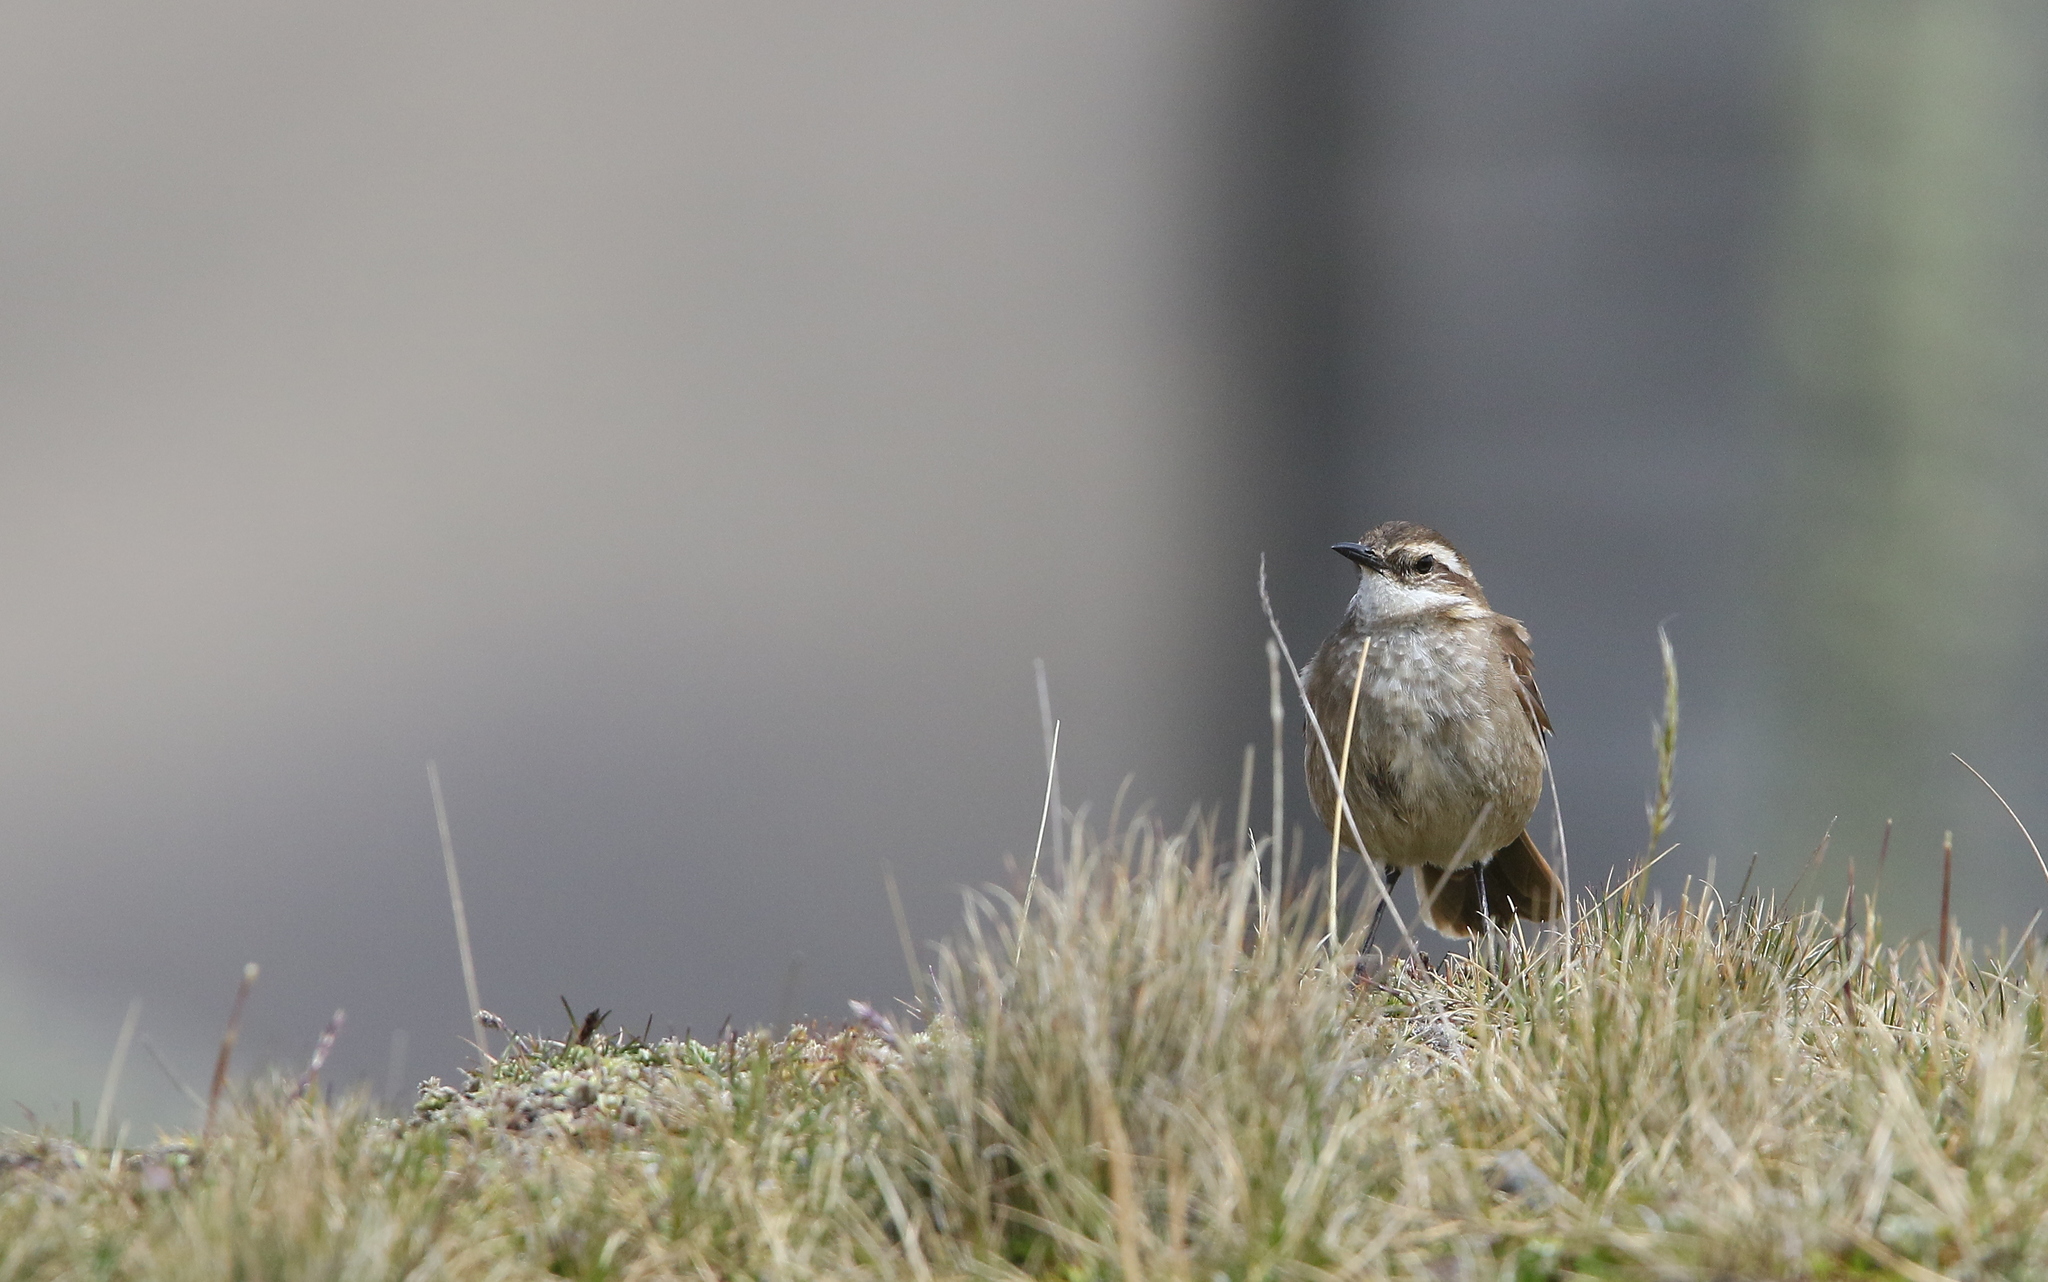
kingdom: Animalia
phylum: Chordata
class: Aves
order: Passeriformes
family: Furnariidae
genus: Cinclodes
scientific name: Cinclodes albidiventris
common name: Chestnut-winged cinclodes
